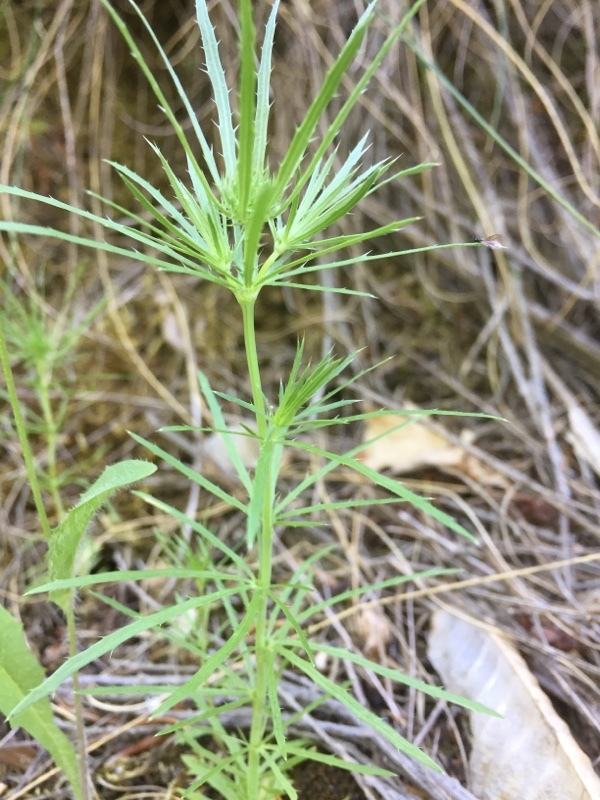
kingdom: Plantae
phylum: Tracheophyta
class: Magnoliopsida
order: Apiales
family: Apiaceae
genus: Eryngium
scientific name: Eryngium tenue
